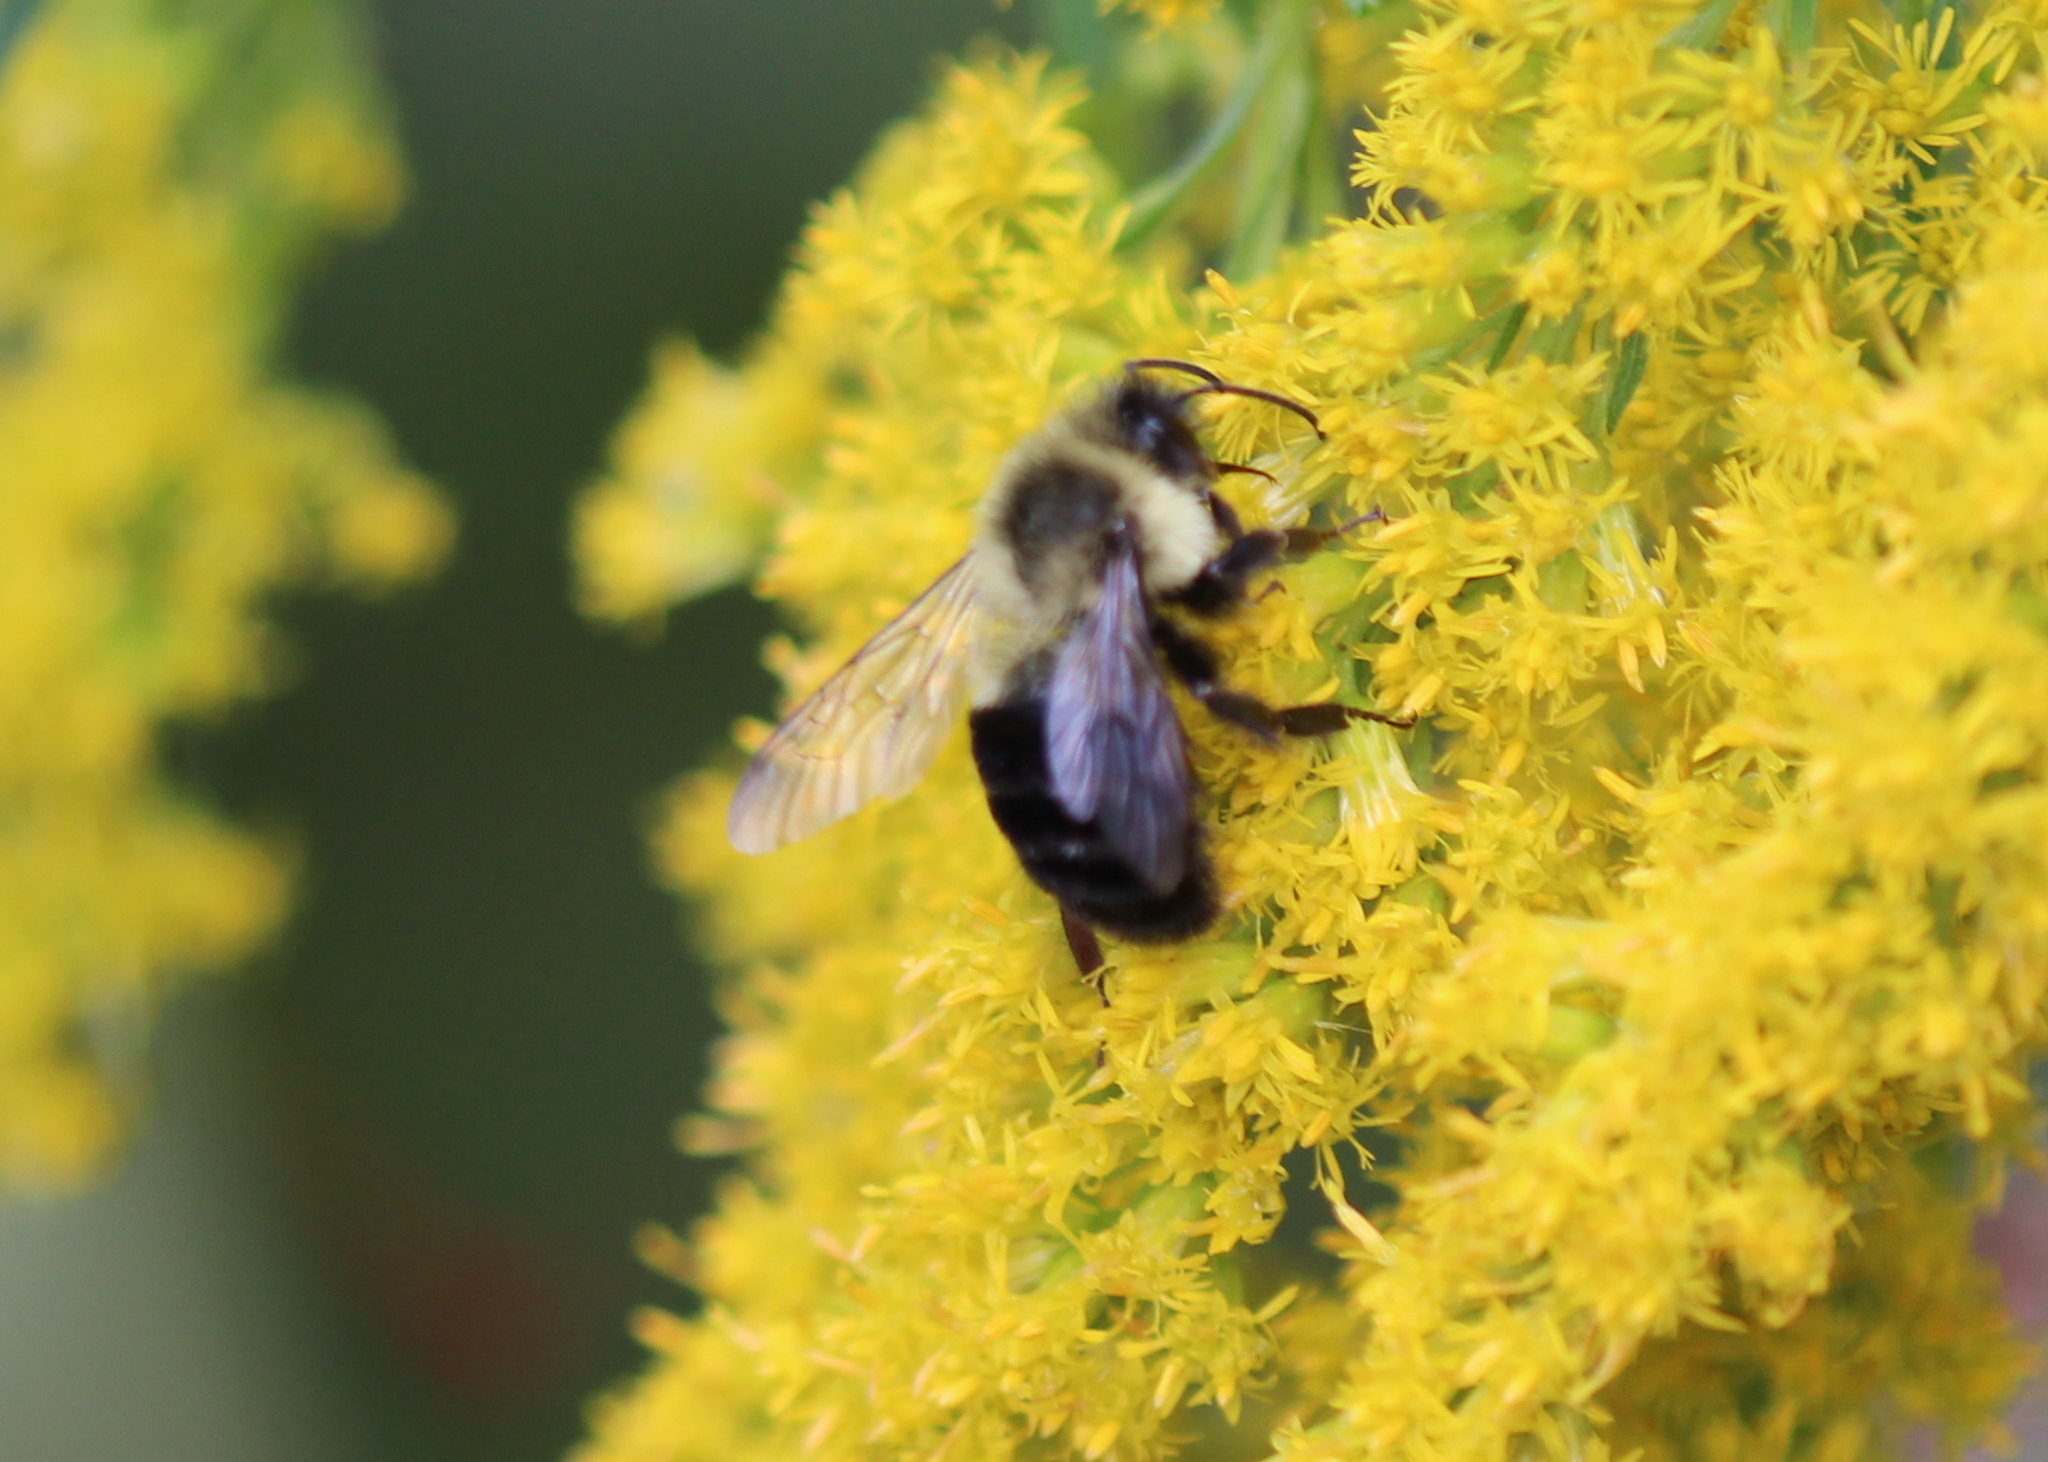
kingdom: Animalia
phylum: Arthropoda
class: Insecta
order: Hymenoptera
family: Apidae
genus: Bombus
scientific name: Bombus impatiens
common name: Common eastern bumble bee
